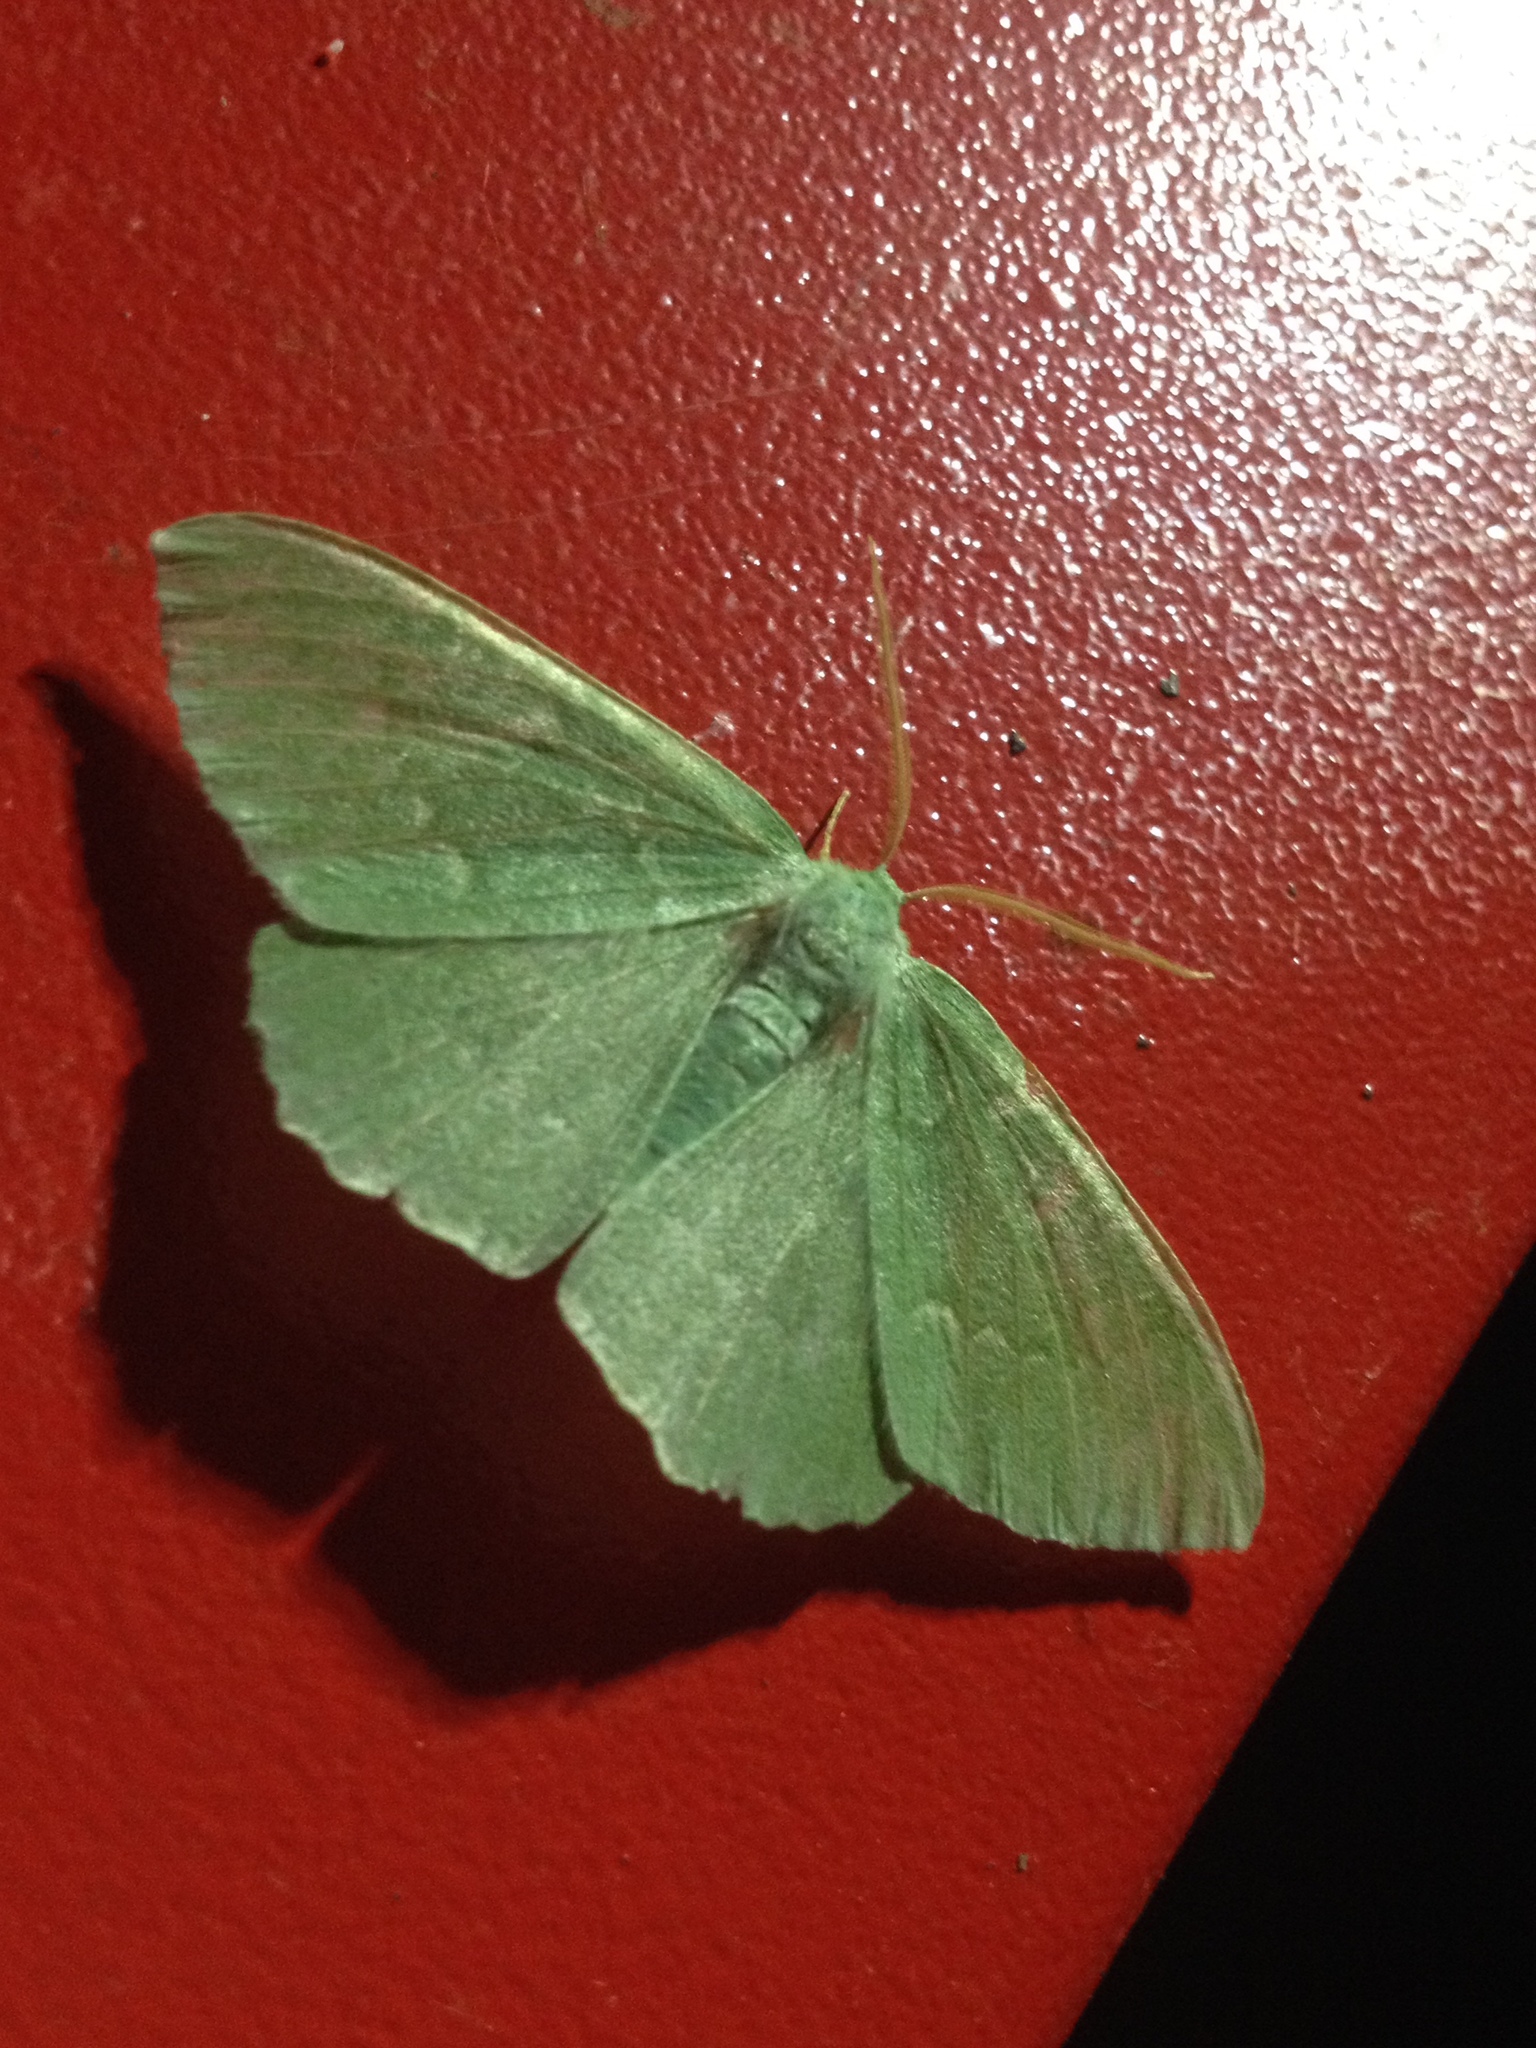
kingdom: Animalia
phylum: Arthropoda
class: Insecta
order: Lepidoptera
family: Geometridae
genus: Geometra
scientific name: Geometra papilionaria
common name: Large emerald
